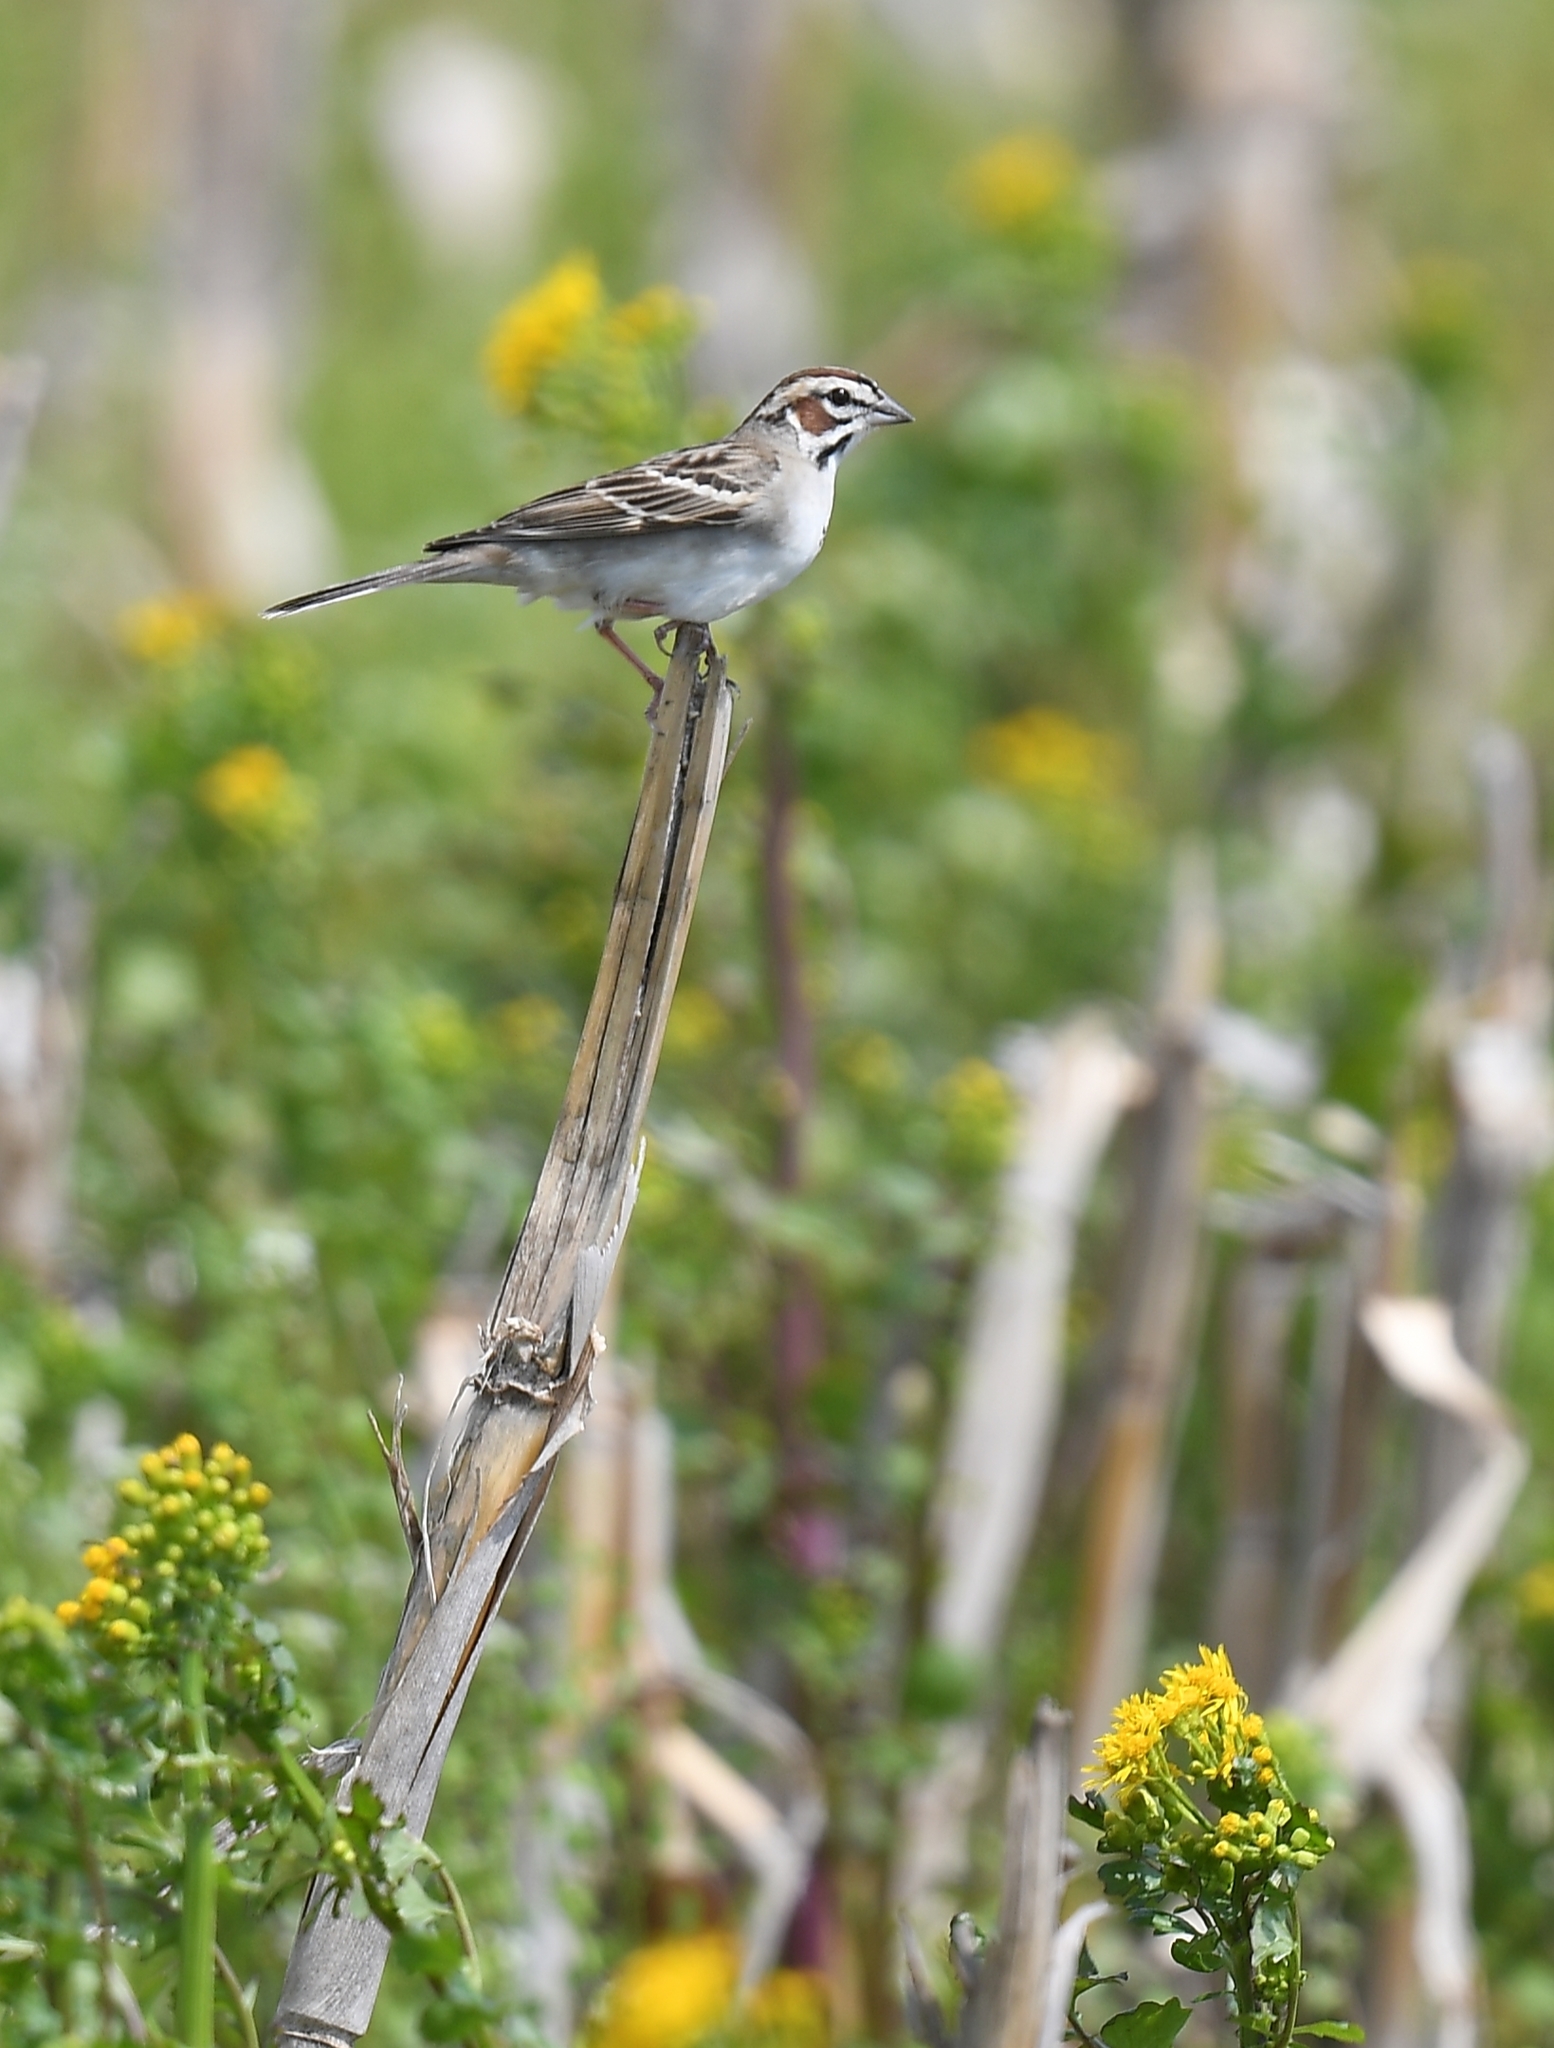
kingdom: Animalia
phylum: Chordata
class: Aves
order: Passeriformes
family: Passerellidae
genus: Chondestes
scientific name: Chondestes grammacus
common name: Lark sparrow
